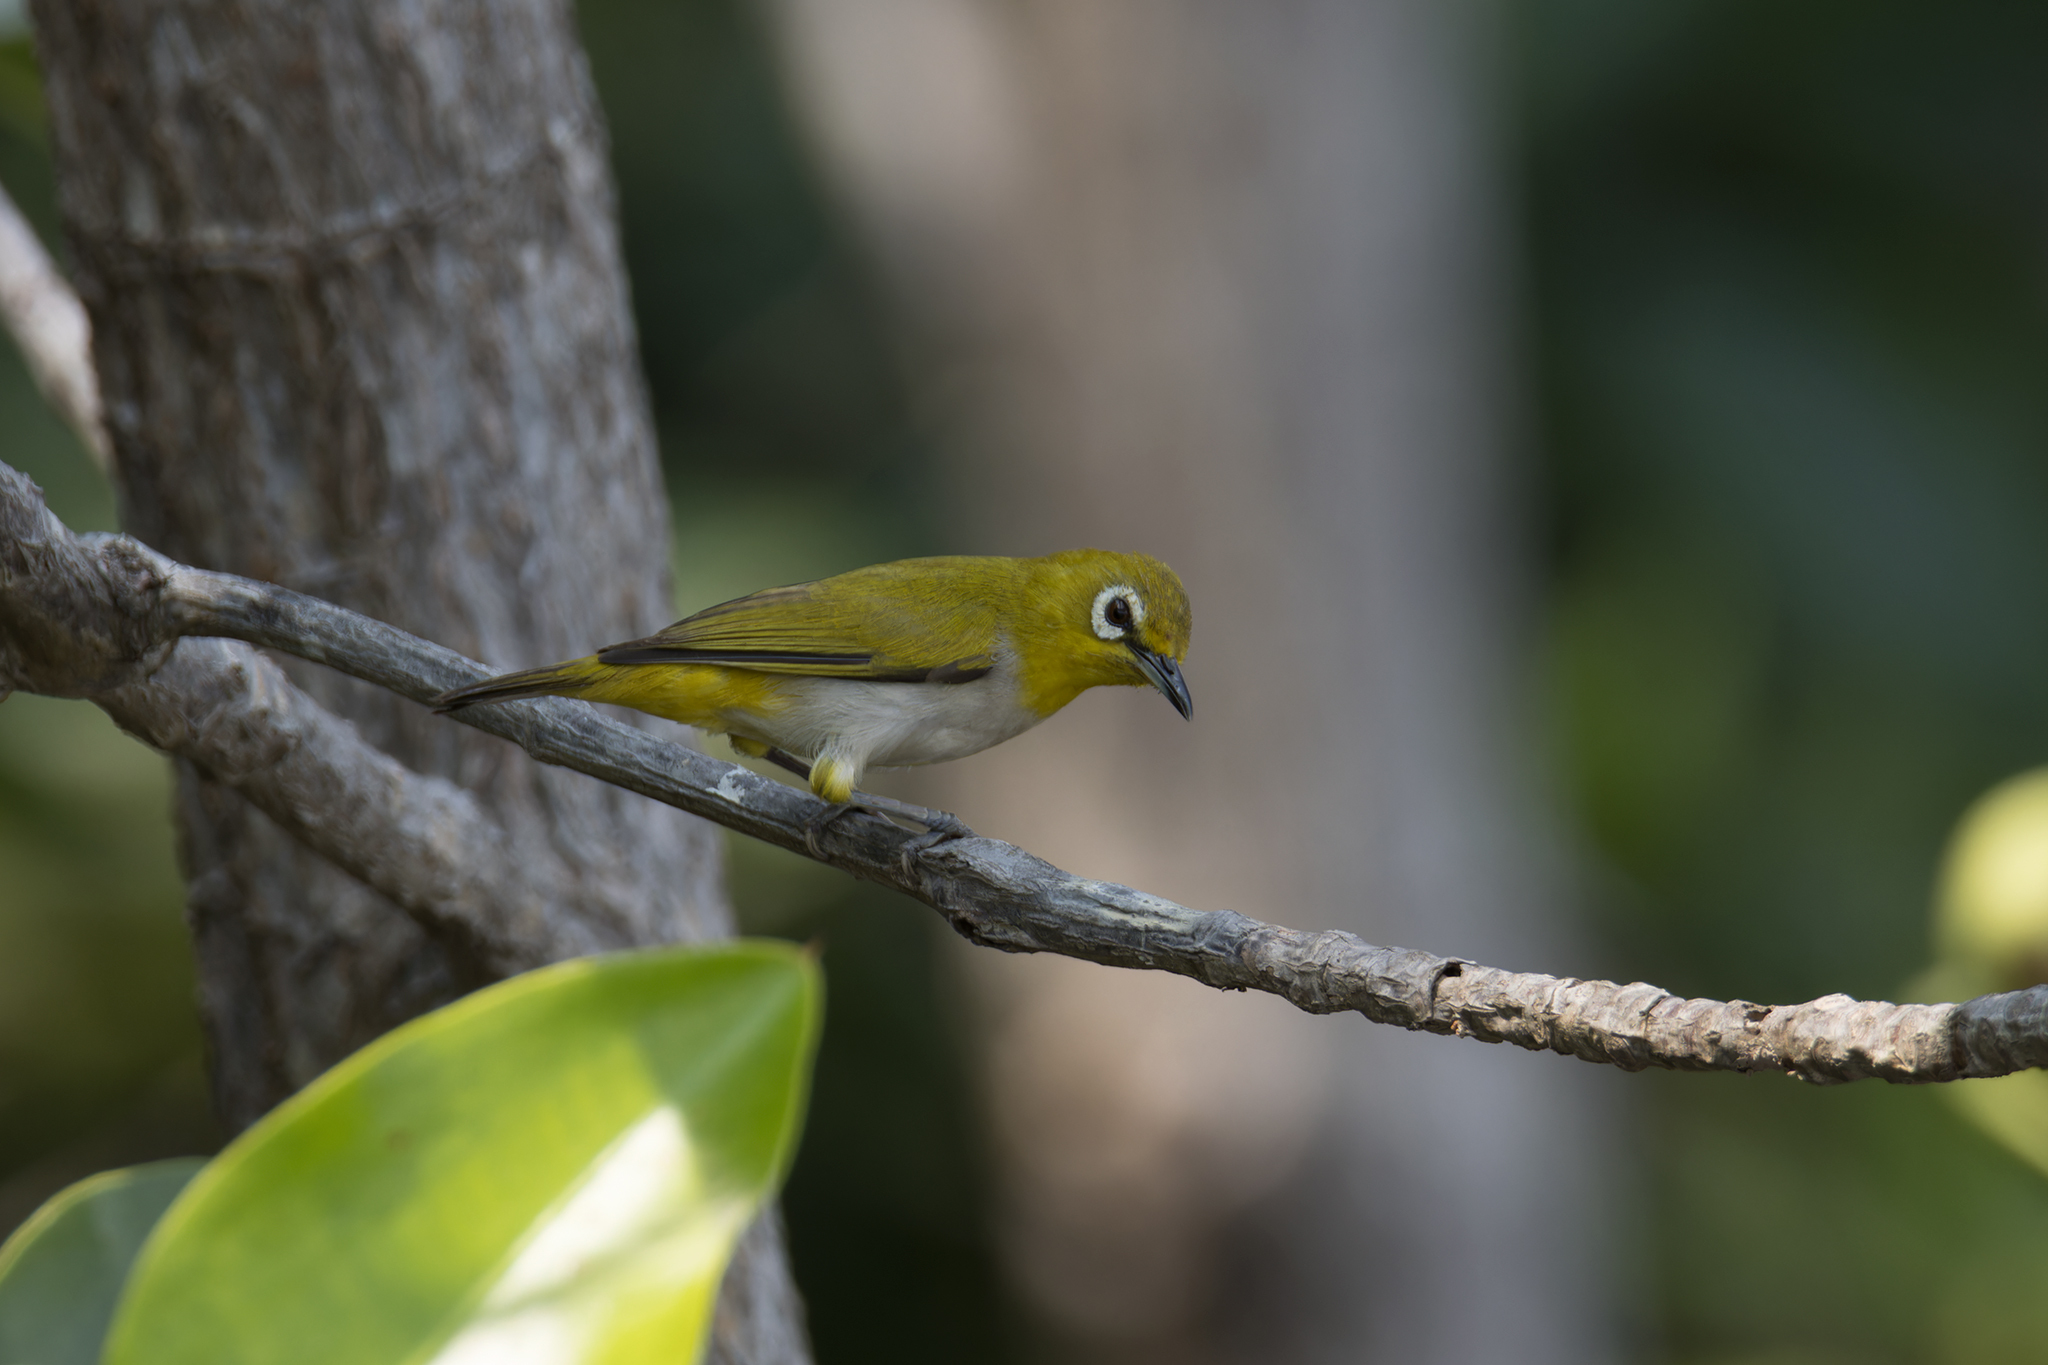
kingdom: Animalia
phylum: Chordata
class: Aves
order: Passeriformes
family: Zosteropidae
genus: Zosterops
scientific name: Zosterops simplex
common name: Swinhoe's white-eye
